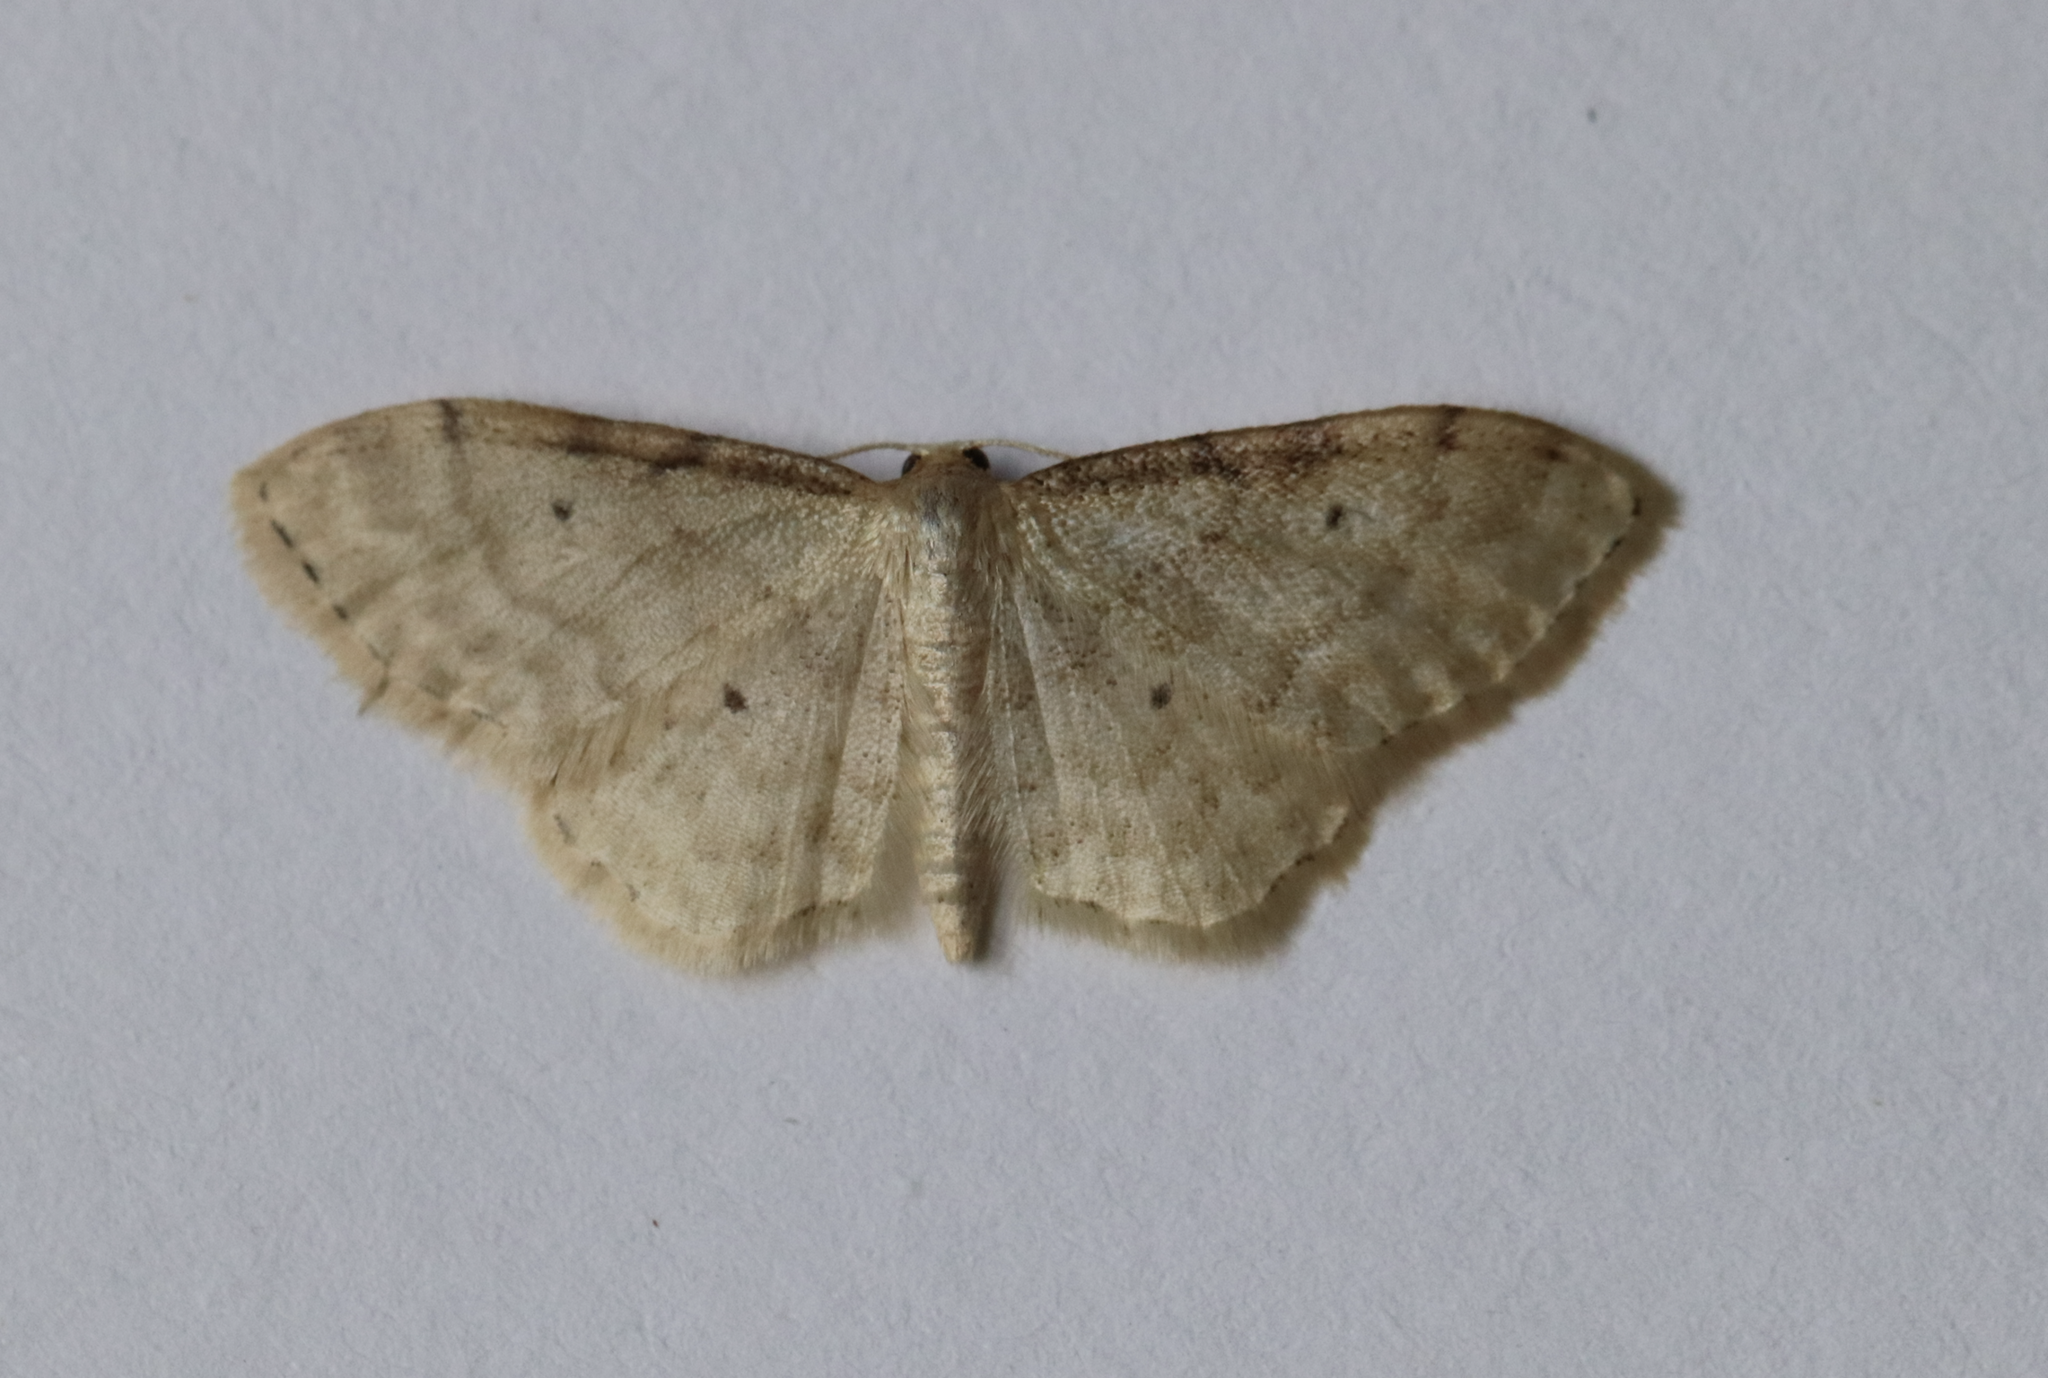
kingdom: Animalia
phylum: Arthropoda
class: Insecta
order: Lepidoptera
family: Geometridae
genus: Idaea
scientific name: Idaea fuscovenosa
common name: Dwarf cream wave
